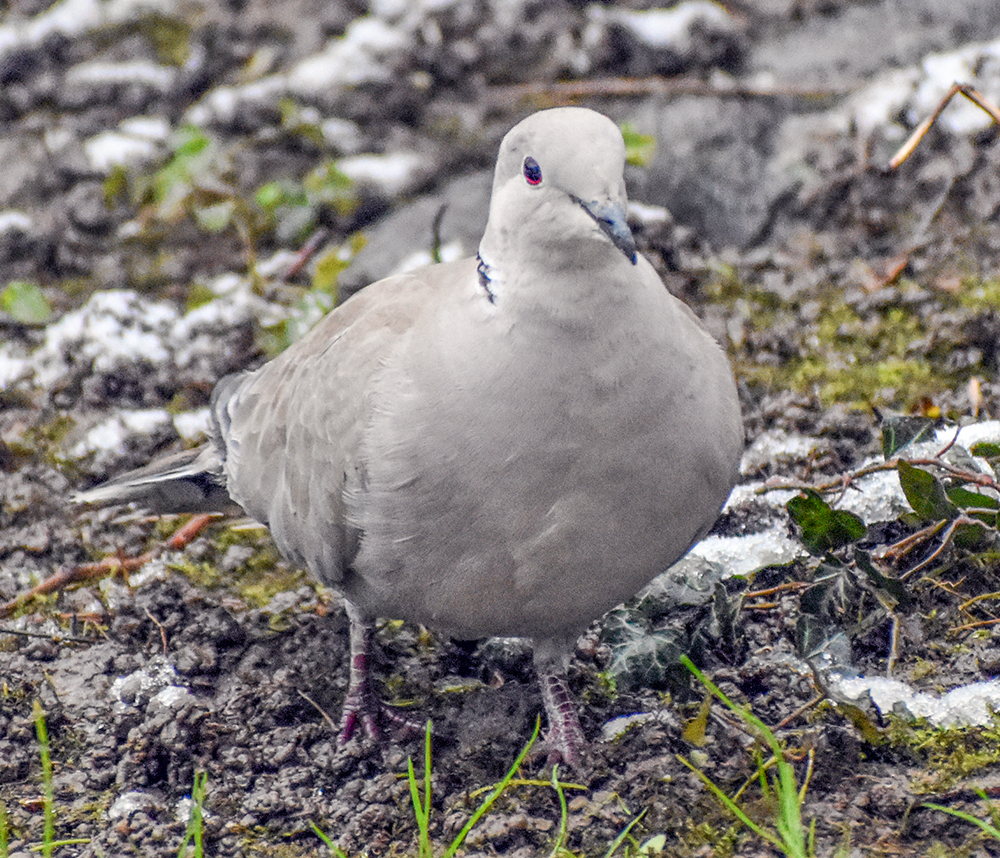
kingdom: Animalia
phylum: Chordata
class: Aves
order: Columbiformes
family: Columbidae
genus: Streptopelia
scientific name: Streptopelia decaocto
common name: Eurasian collared dove
